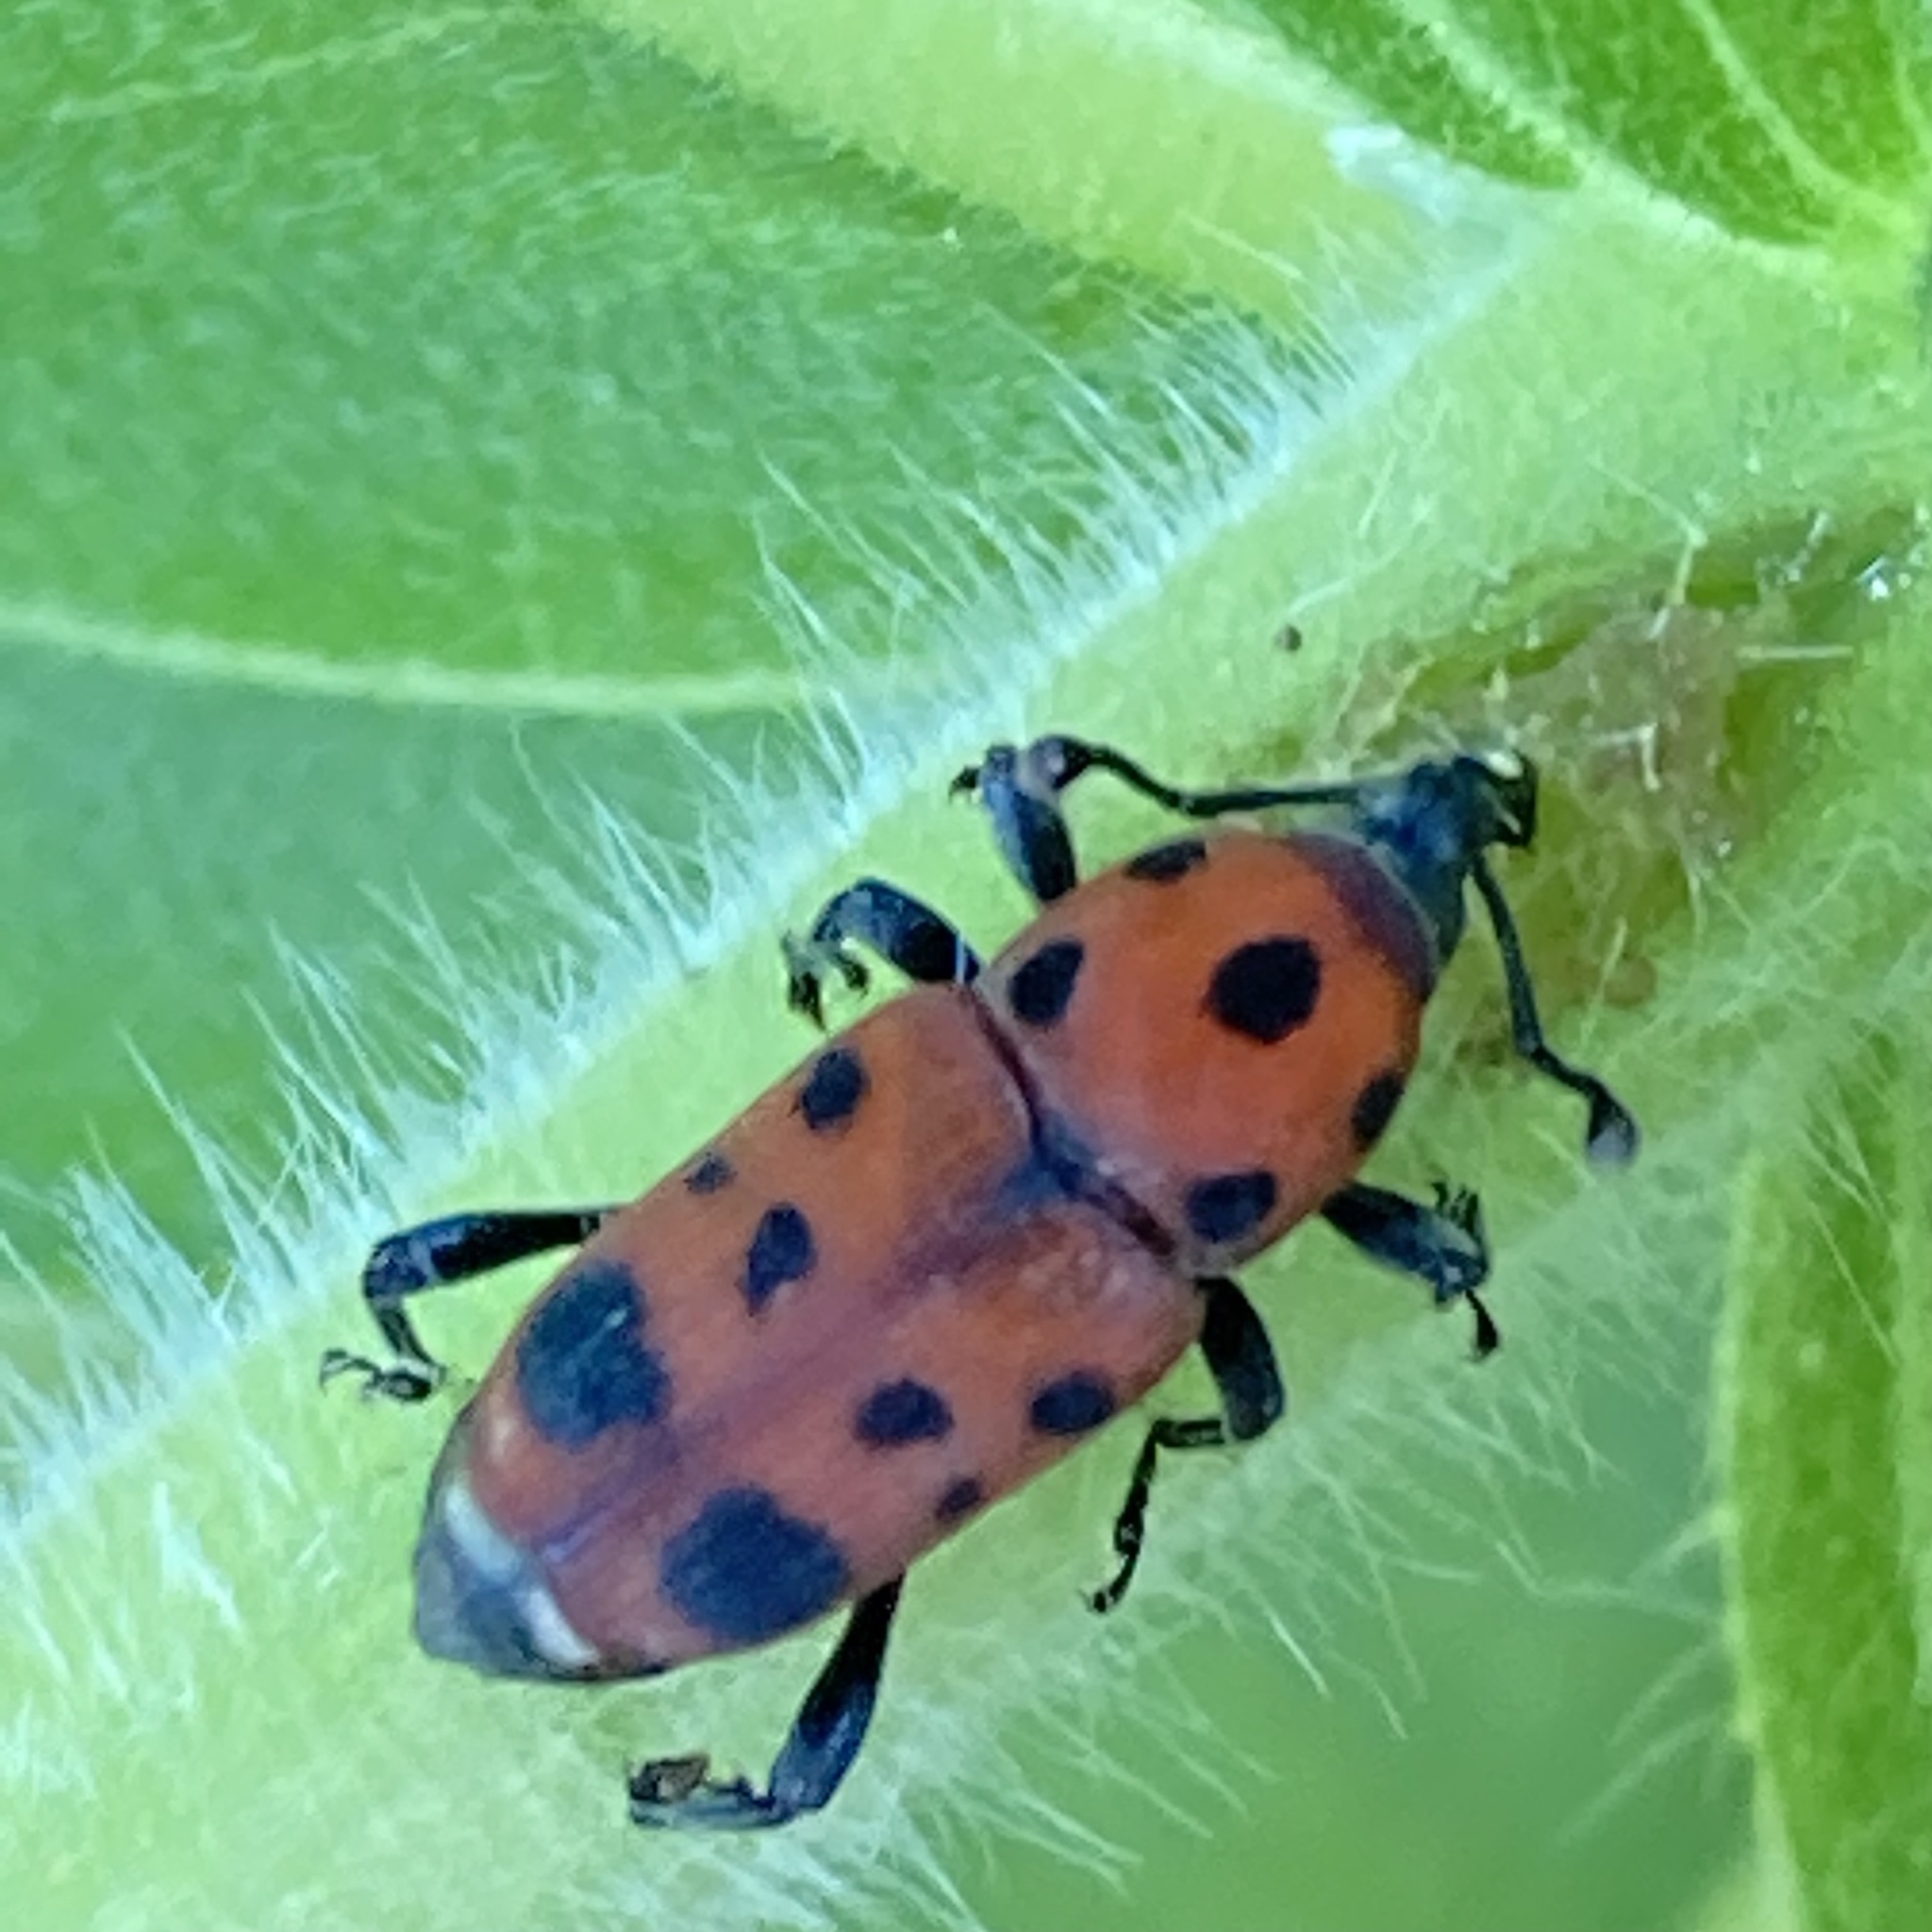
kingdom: Animalia
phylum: Arthropoda
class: Insecta
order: Coleoptera
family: Dryophthoridae
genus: Rhodobaenus
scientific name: Rhodobaenus tredecimpunctatus
